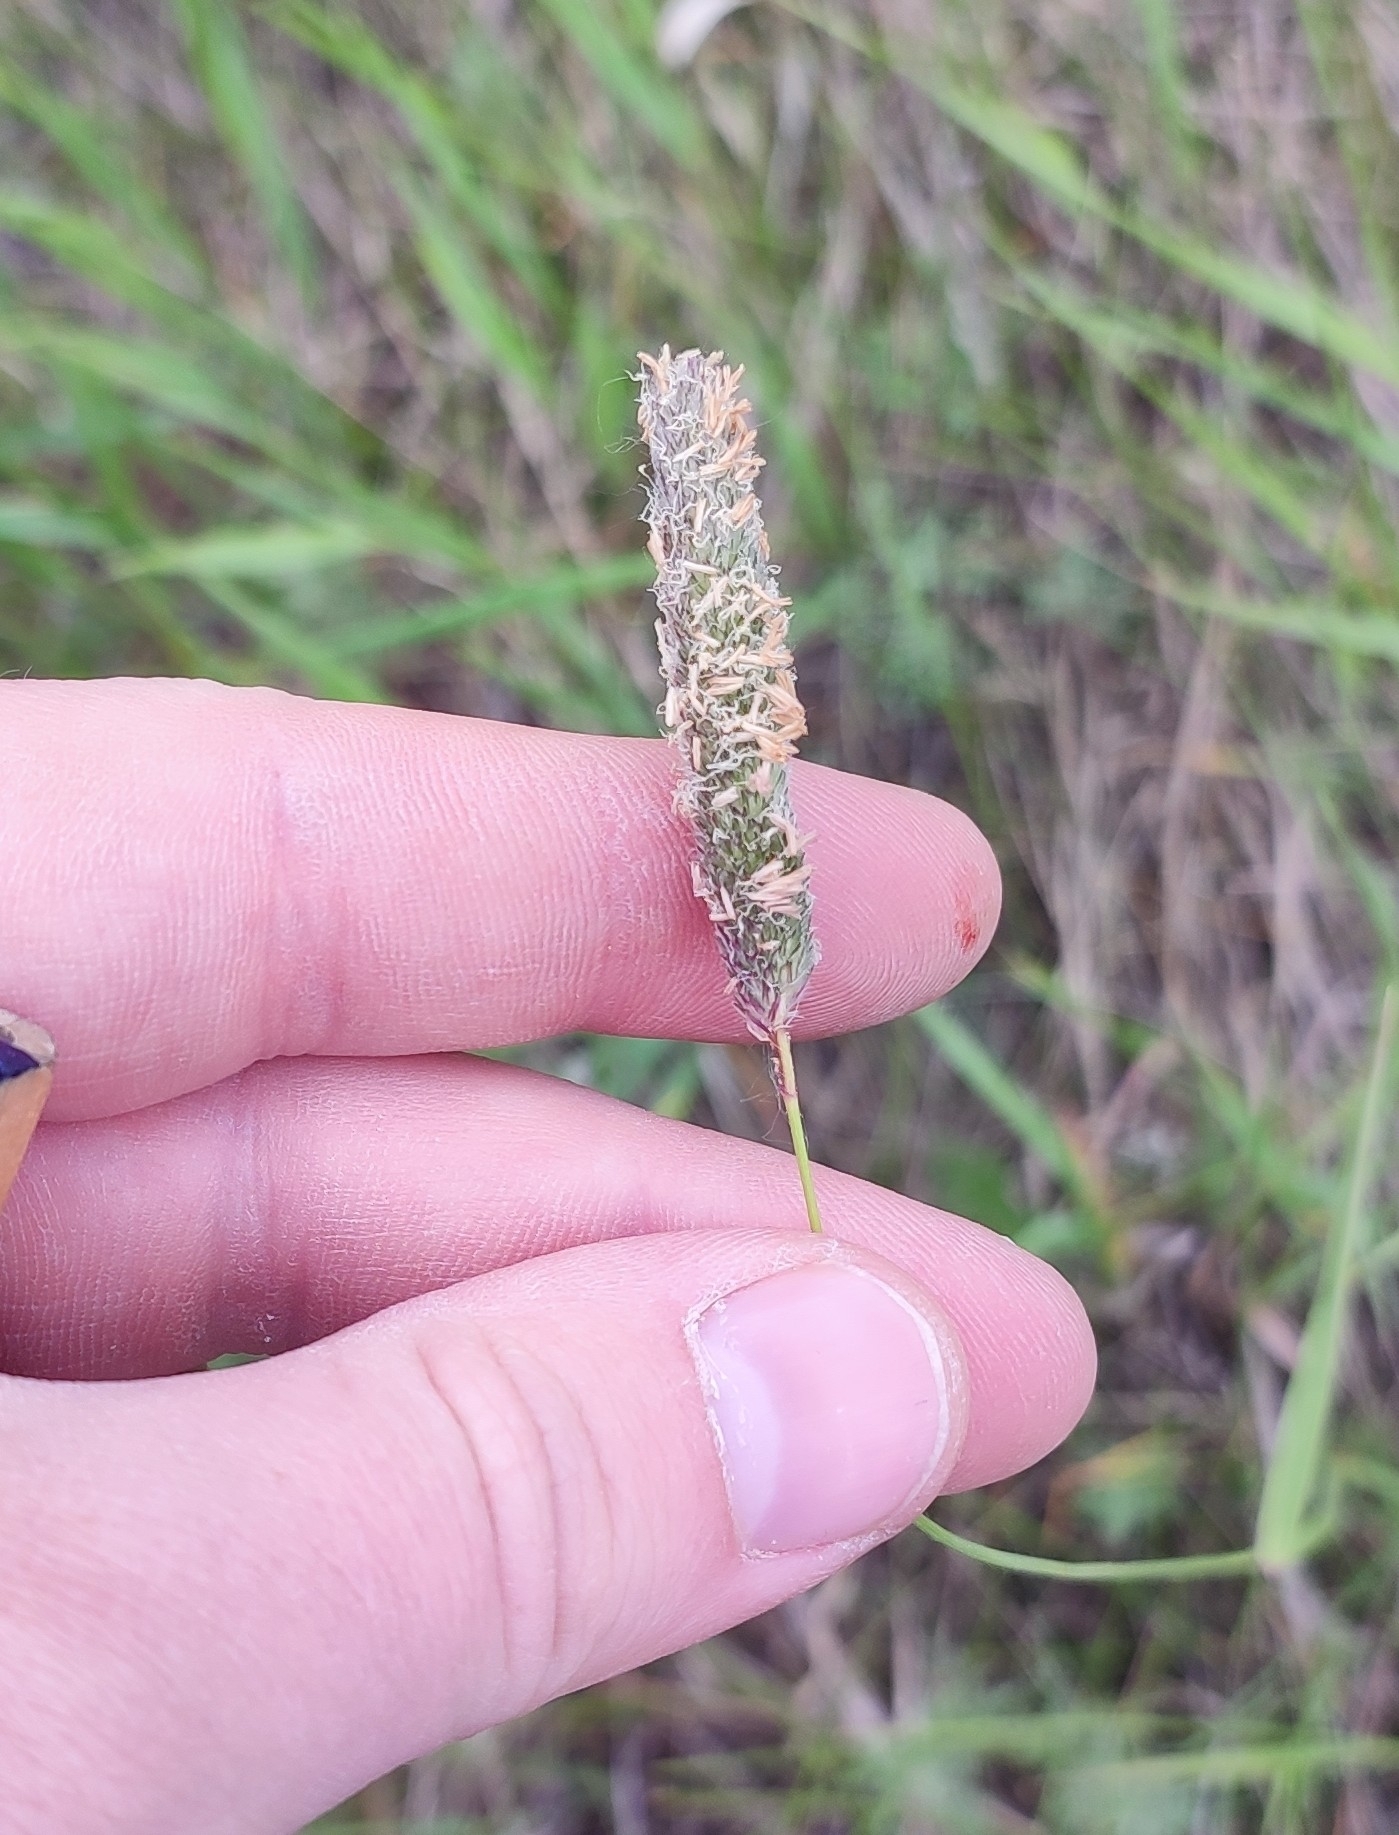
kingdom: Plantae
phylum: Tracheophyta
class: Liliopsida
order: Poales
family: Poaceae
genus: Alopecurus
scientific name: Alopecurus pratensis
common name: Meadow foxtail
